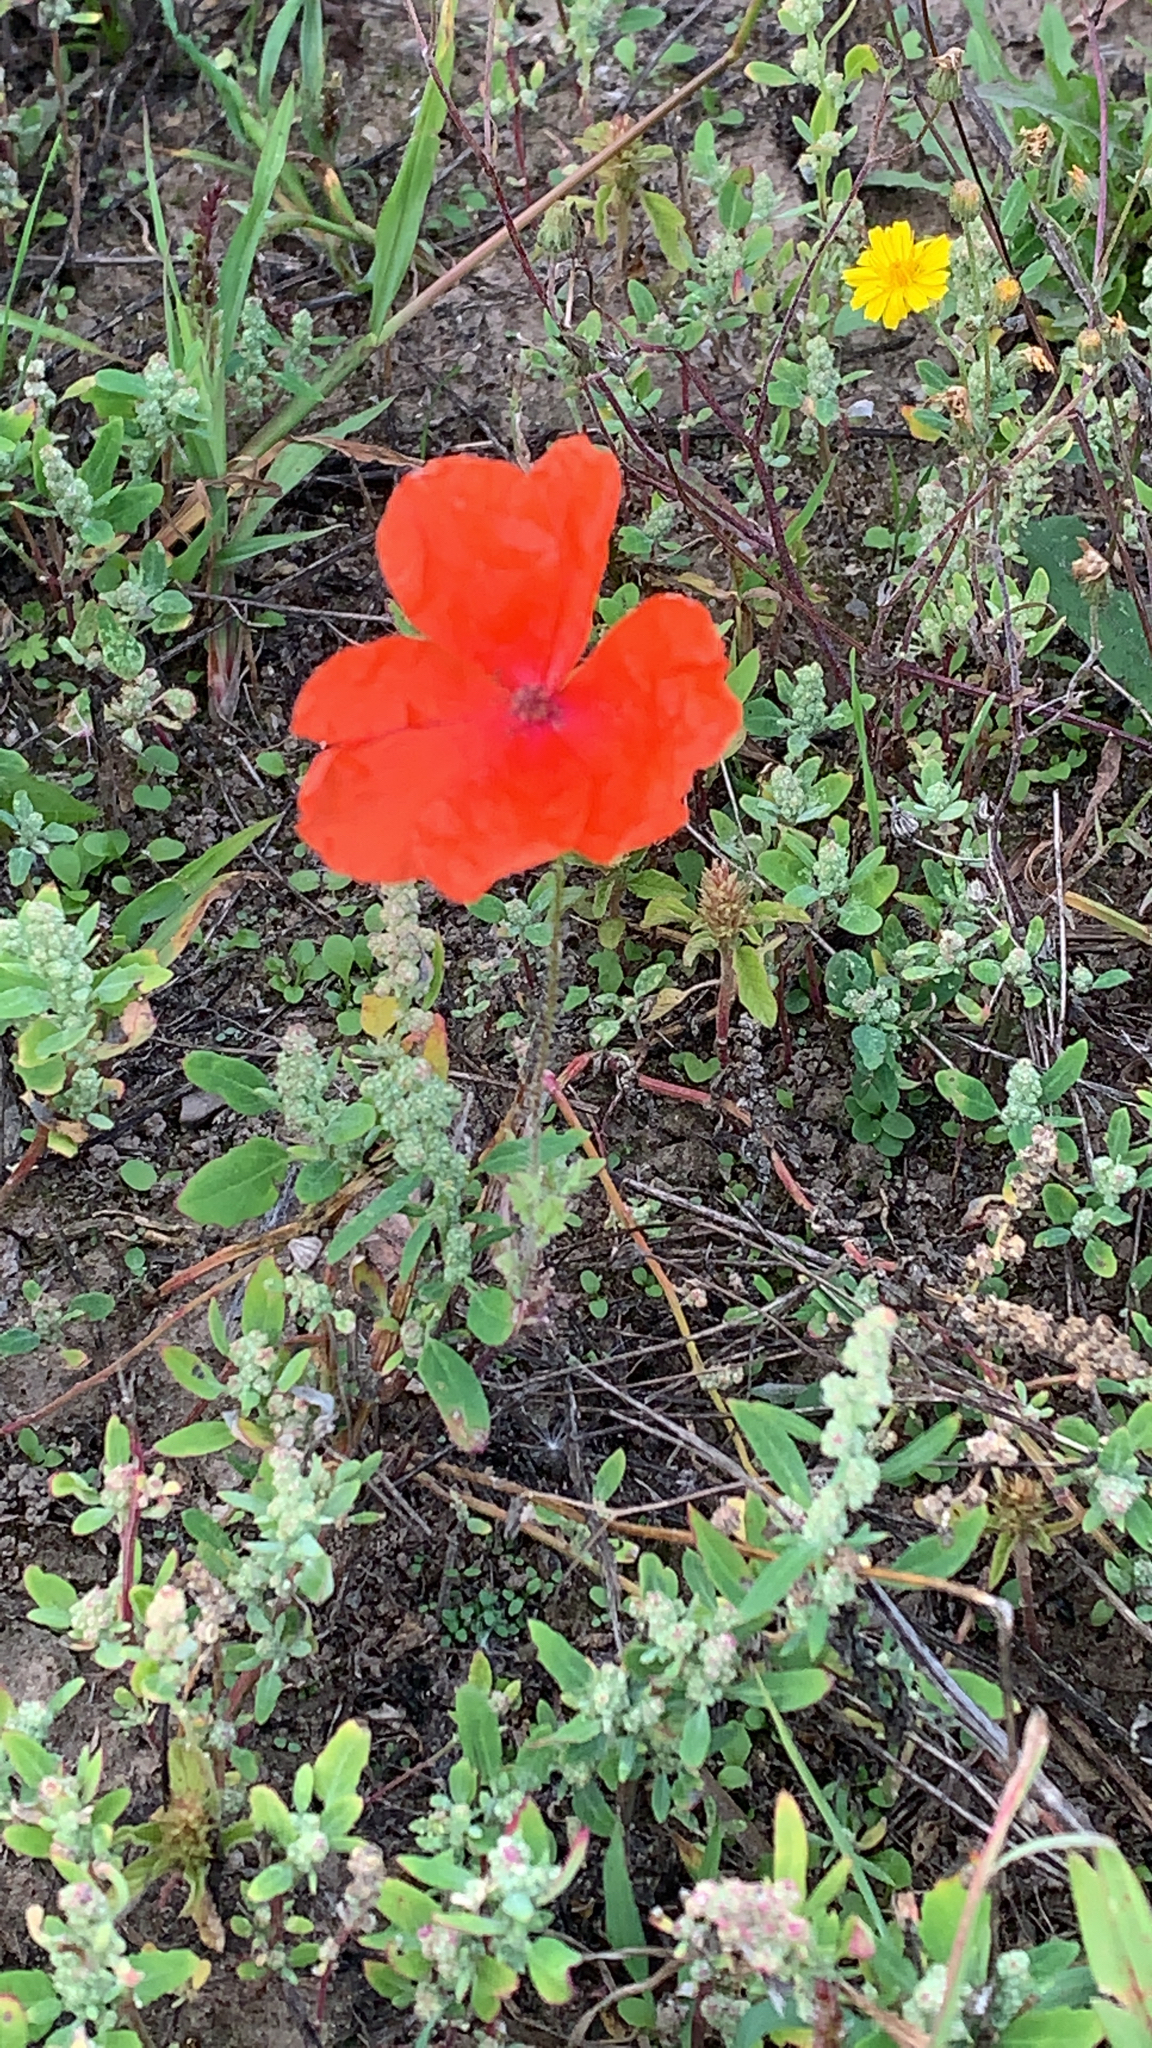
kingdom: Plantae
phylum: Tracheophyta
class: Magnoliopsida
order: Ranunculales
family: Papaveraceae
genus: Papaver
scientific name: Papaver rhoeas
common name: Corn poppy
